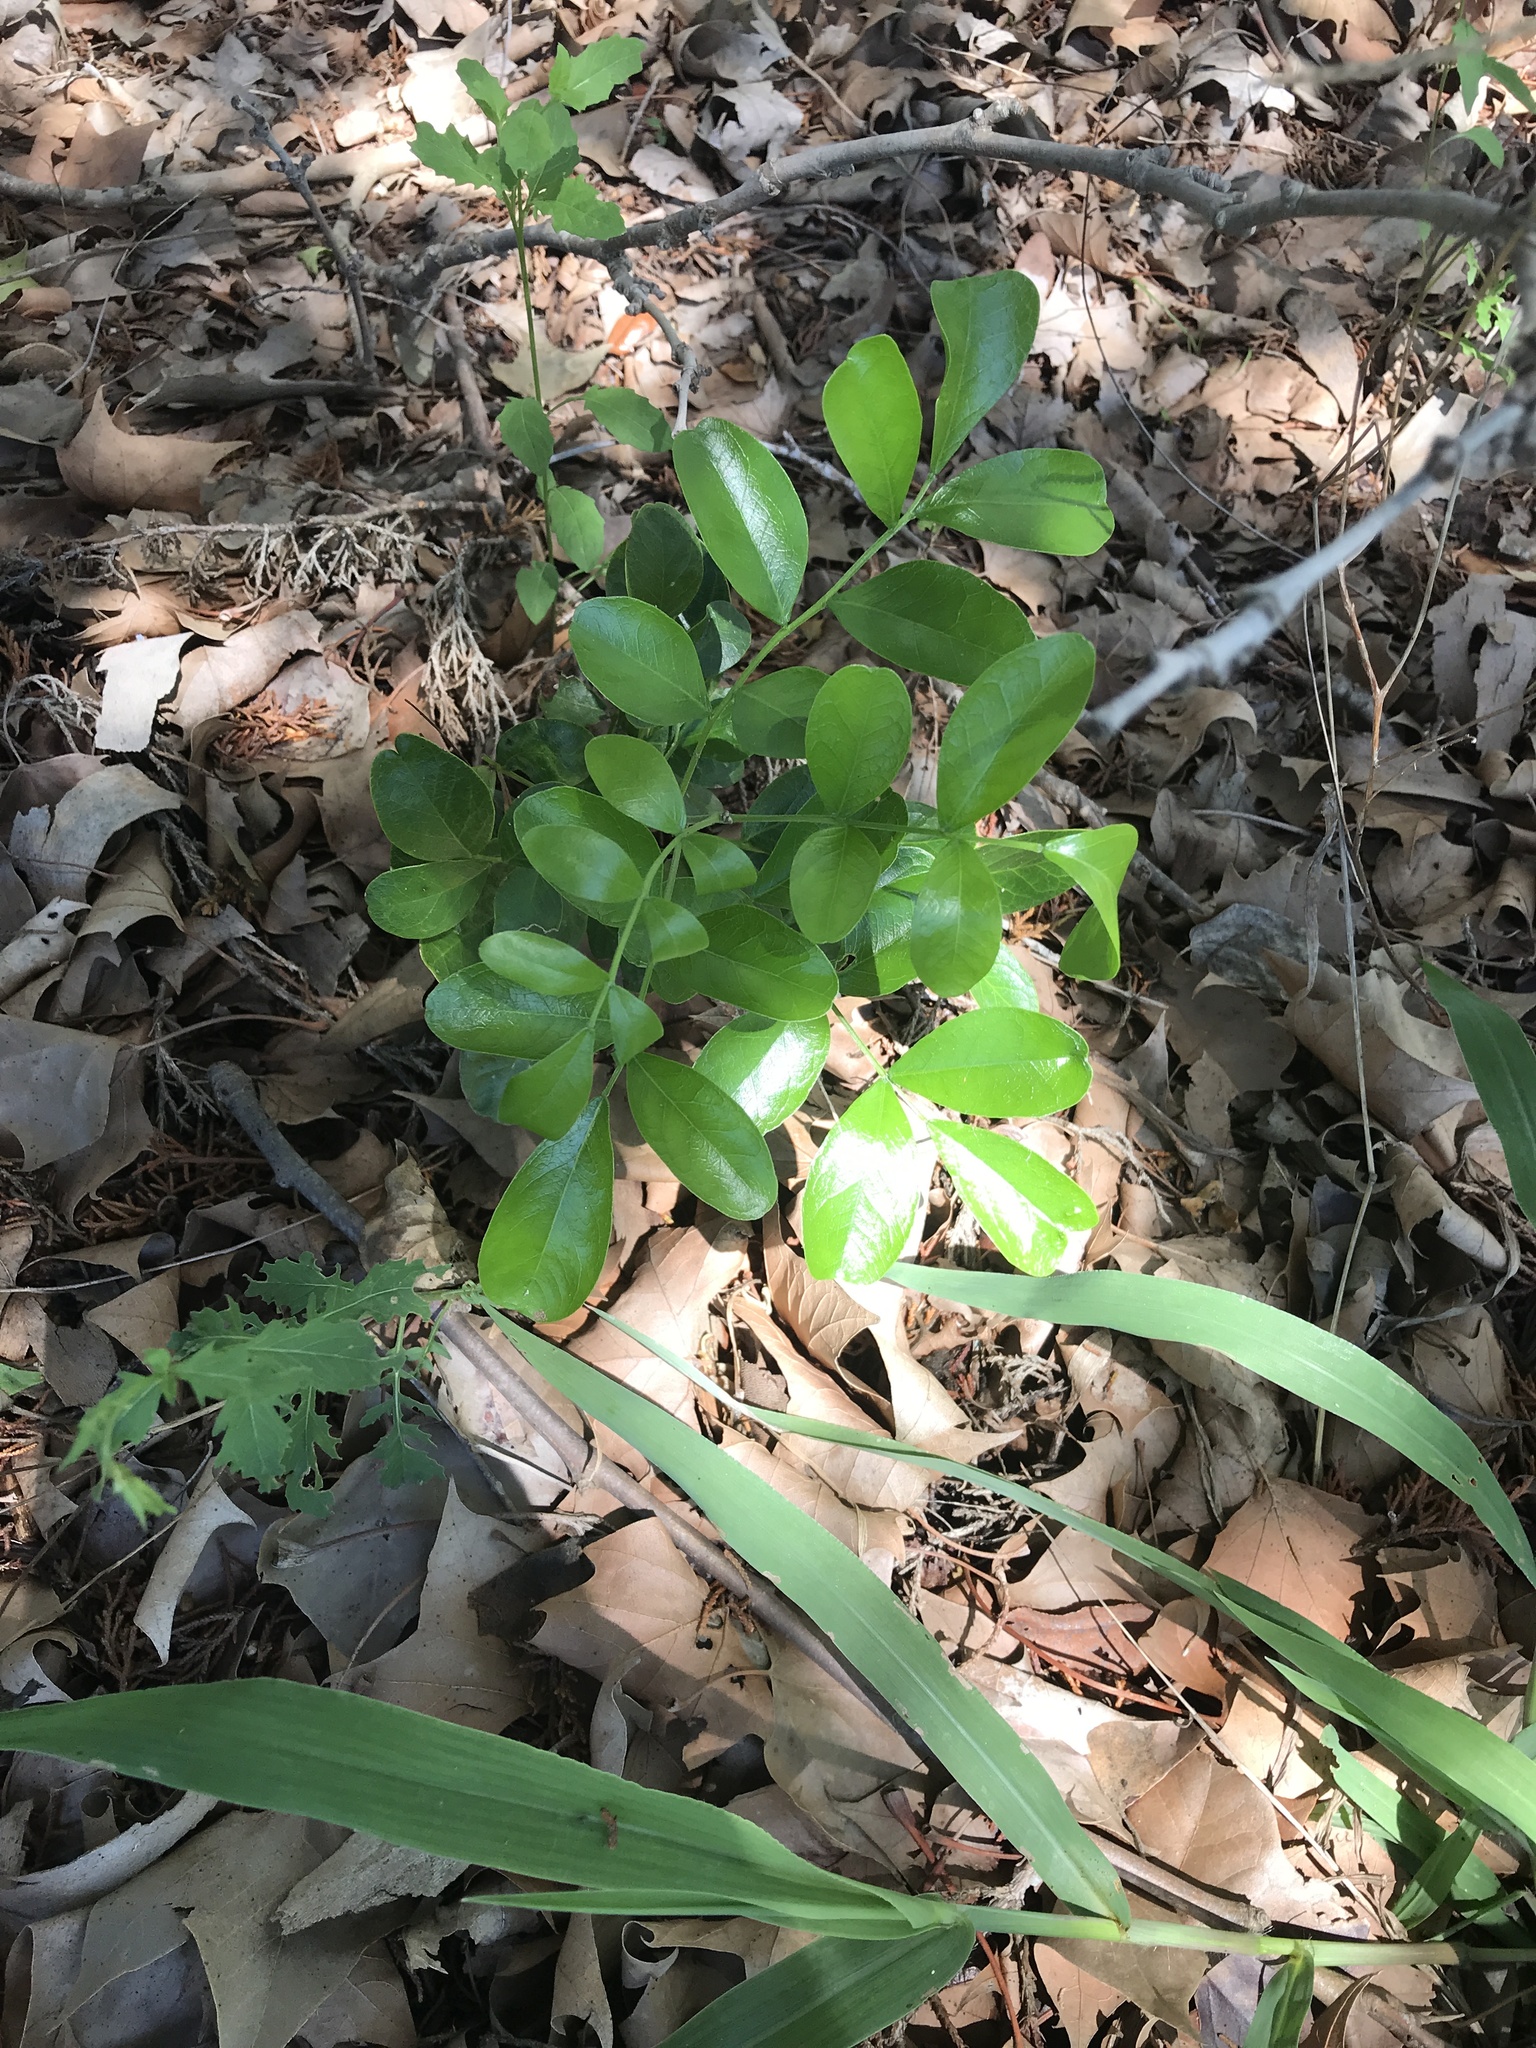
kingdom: Plantae
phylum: Tracheophyta
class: Magnoliopsida
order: Fabales
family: Fabaceae
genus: Dermatophyllum
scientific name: Dermatophyllum secundiflorum
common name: Texas-mountain-laurel
